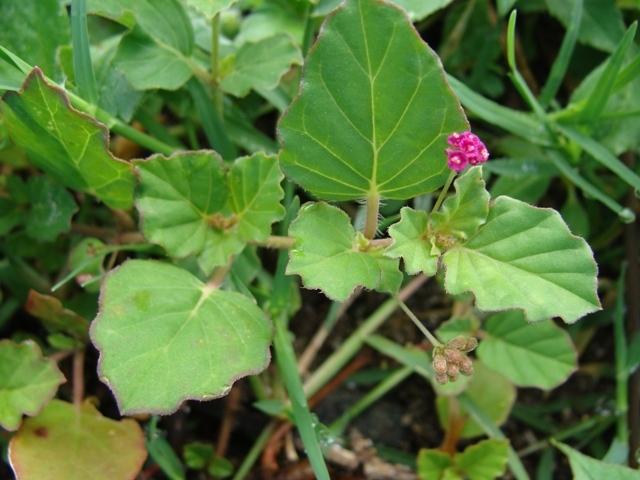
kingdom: Plantae
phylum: Tracheophyta
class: Magnoliopsida
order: Caryophyllales
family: Nyctaginaceae
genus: Boerhavia
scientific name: Boerhavia coccinea
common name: Scarlet spiderling
